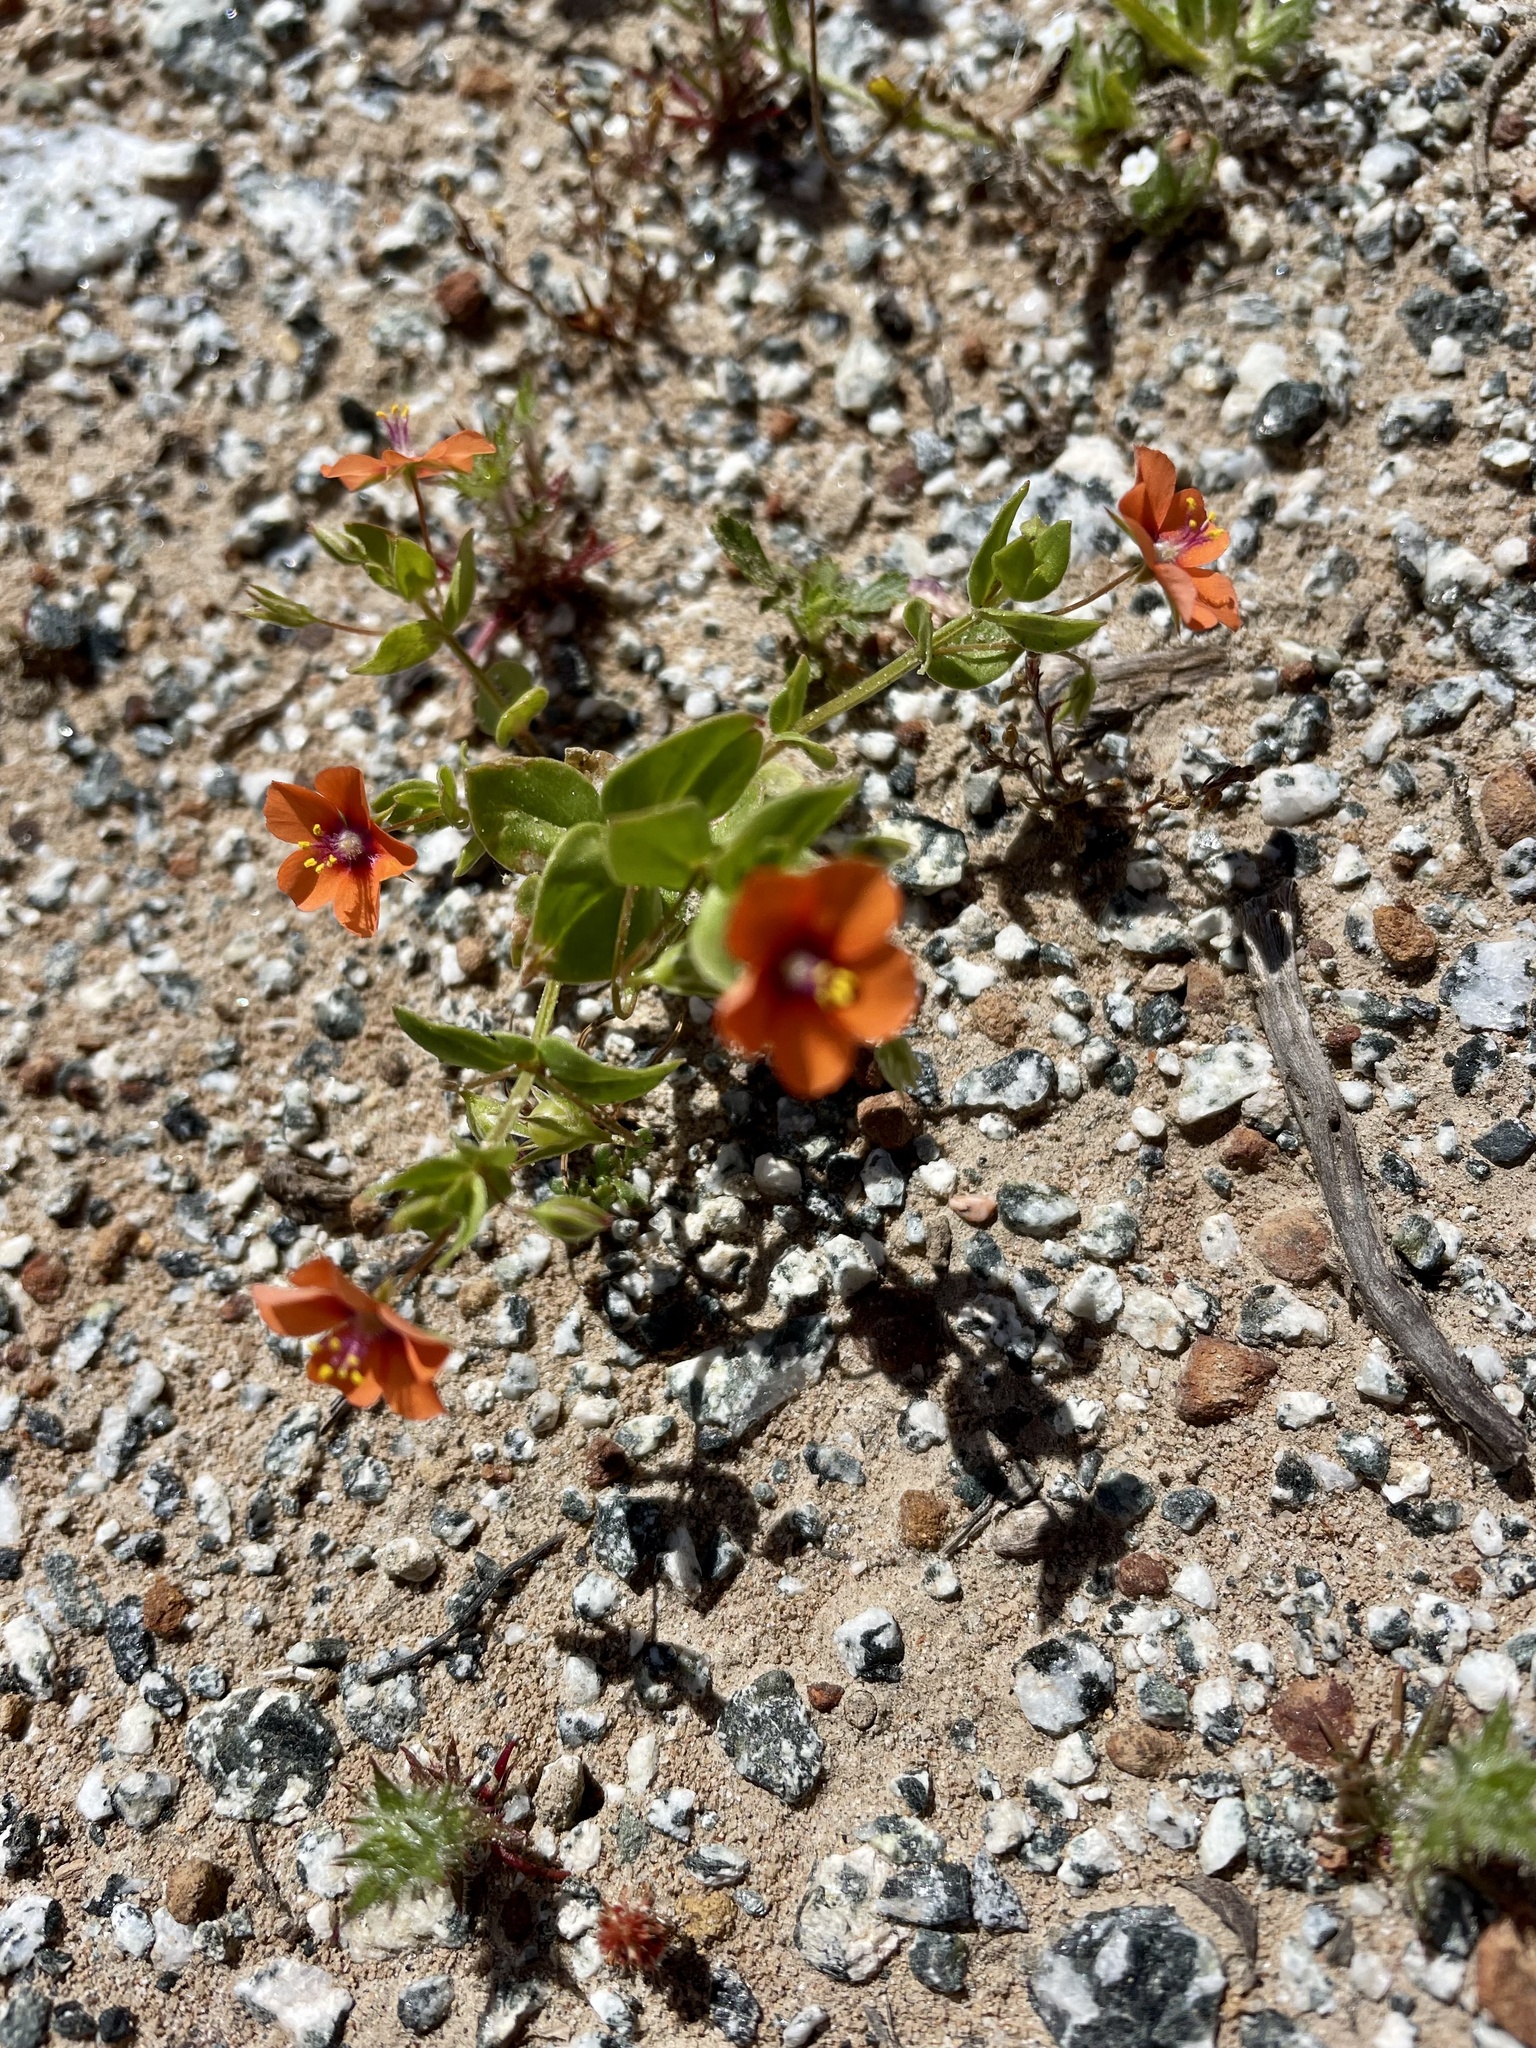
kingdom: Plantae
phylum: Tracheophyta
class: Magnoliopsida
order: Ericales
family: Primulaceae
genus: Lysimachia
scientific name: Lysimachia arvensis
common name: Scarlet pimpernel
